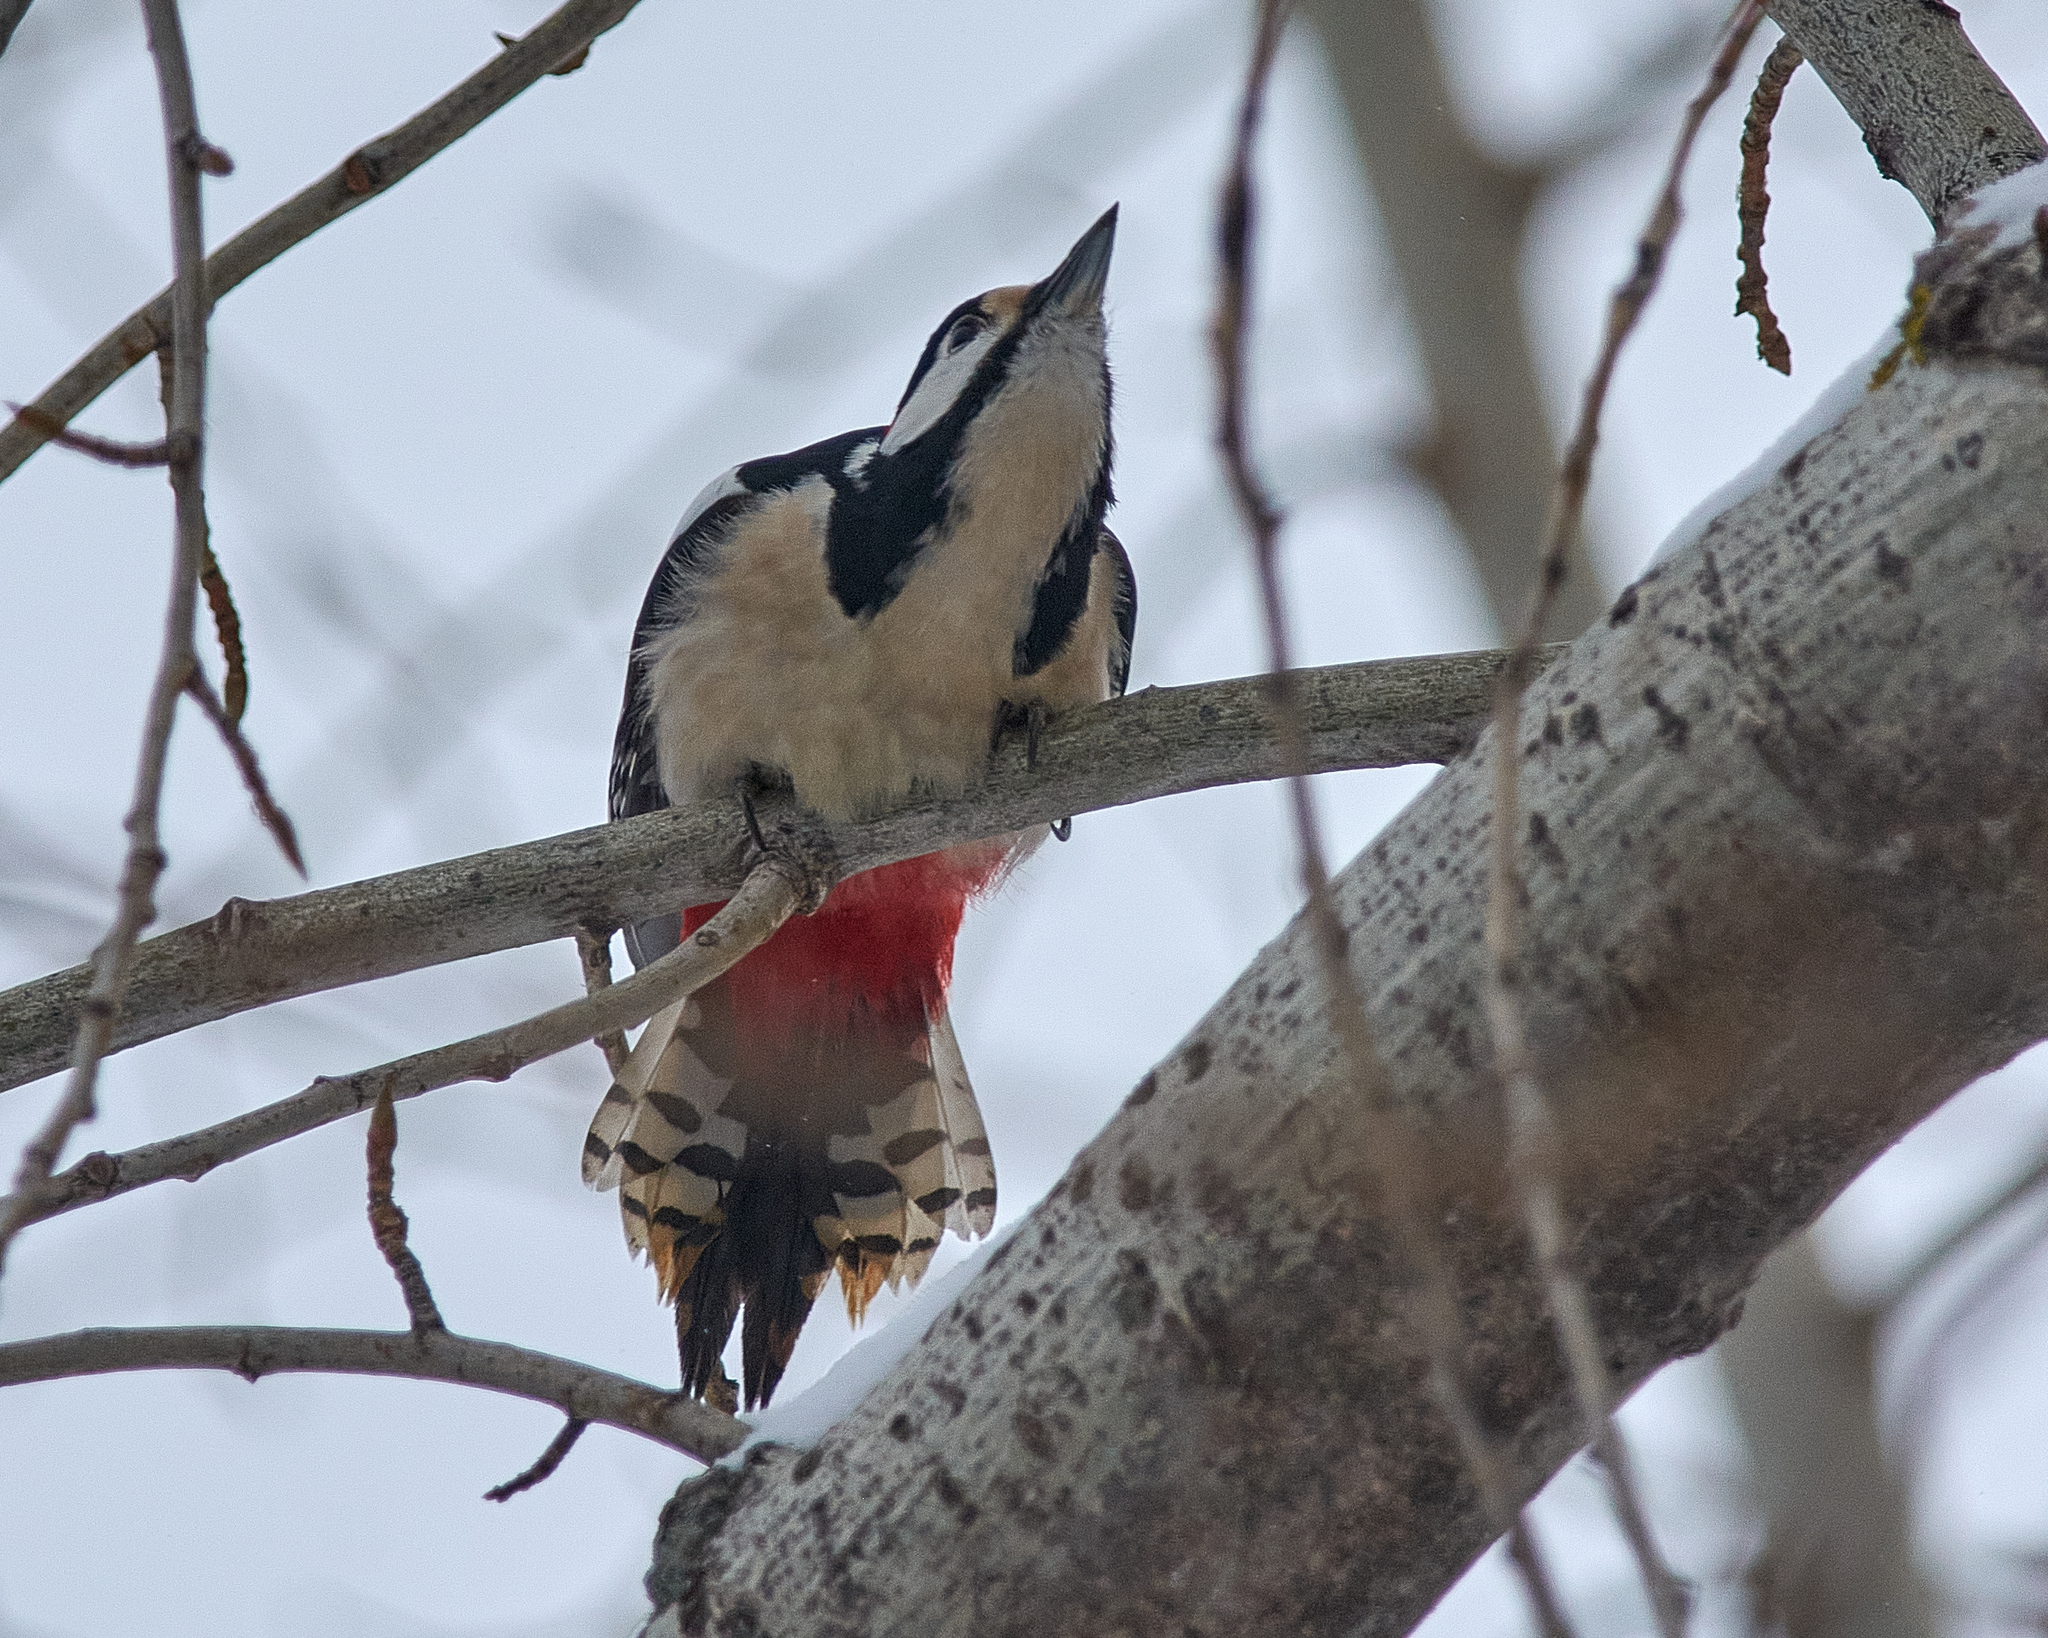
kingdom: Animalia
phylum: Chordata
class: Aves
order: Piciformes
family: Picidae
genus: Dendrocopos
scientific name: Dendrocopos major
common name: Great spotted woodpecker
